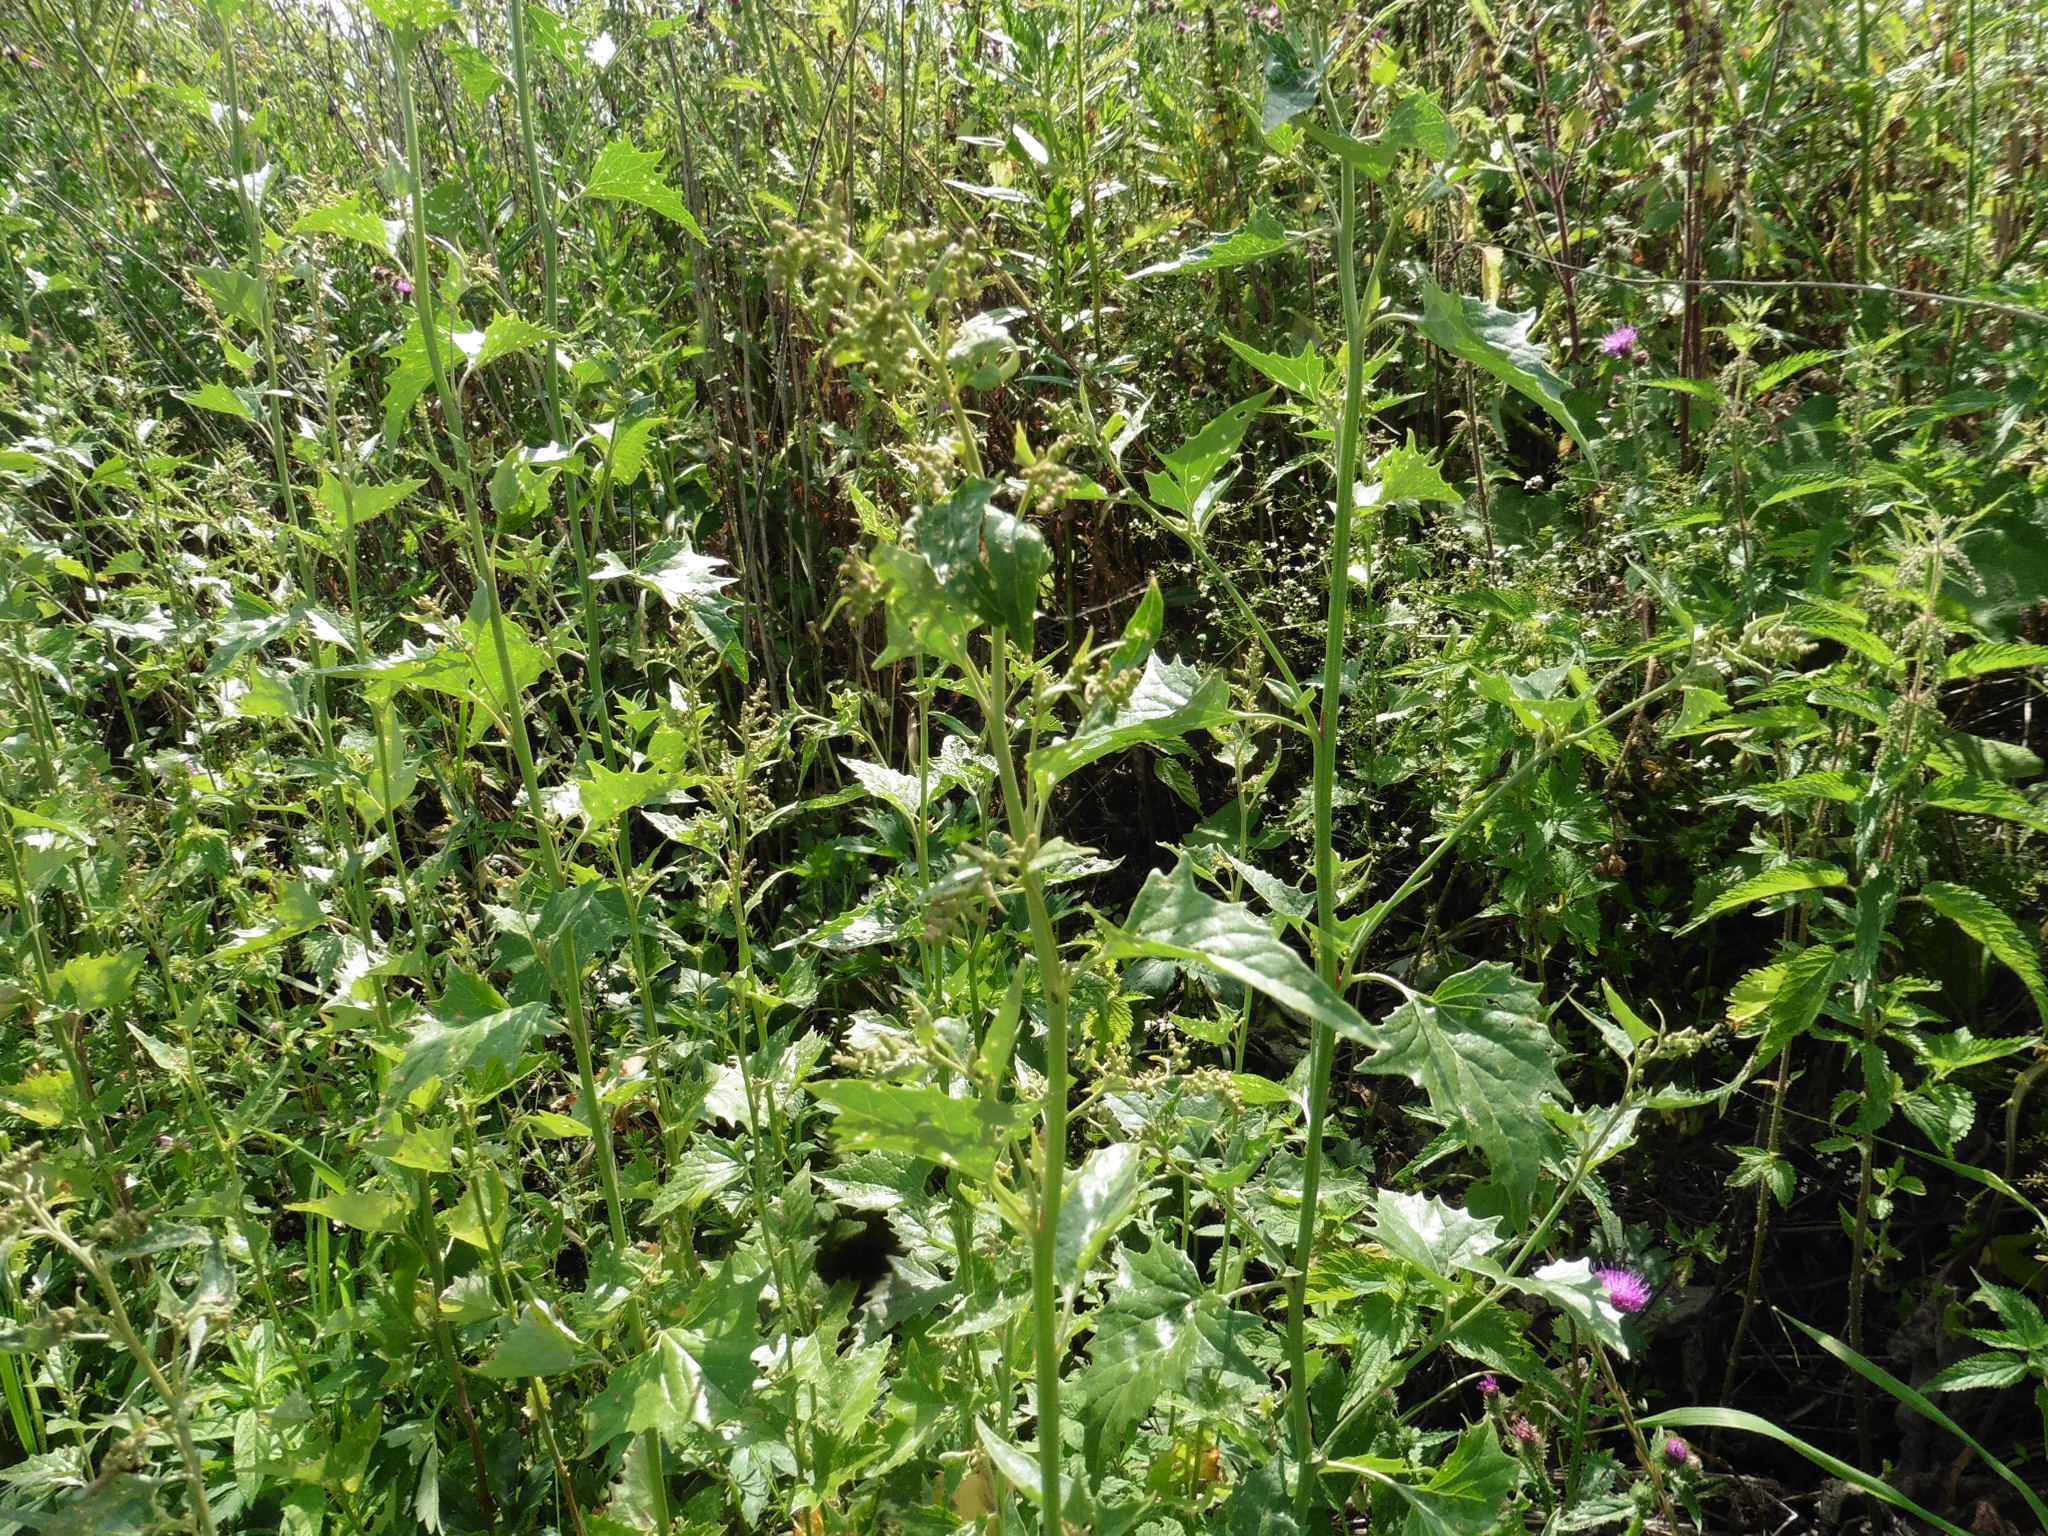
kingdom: Plantae
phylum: Tracheophyta
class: Magnoliopsida
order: Caryophyllales
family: Amaranthaceae
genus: Atriplex
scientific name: Atriplex sagittata
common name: Purple orache
